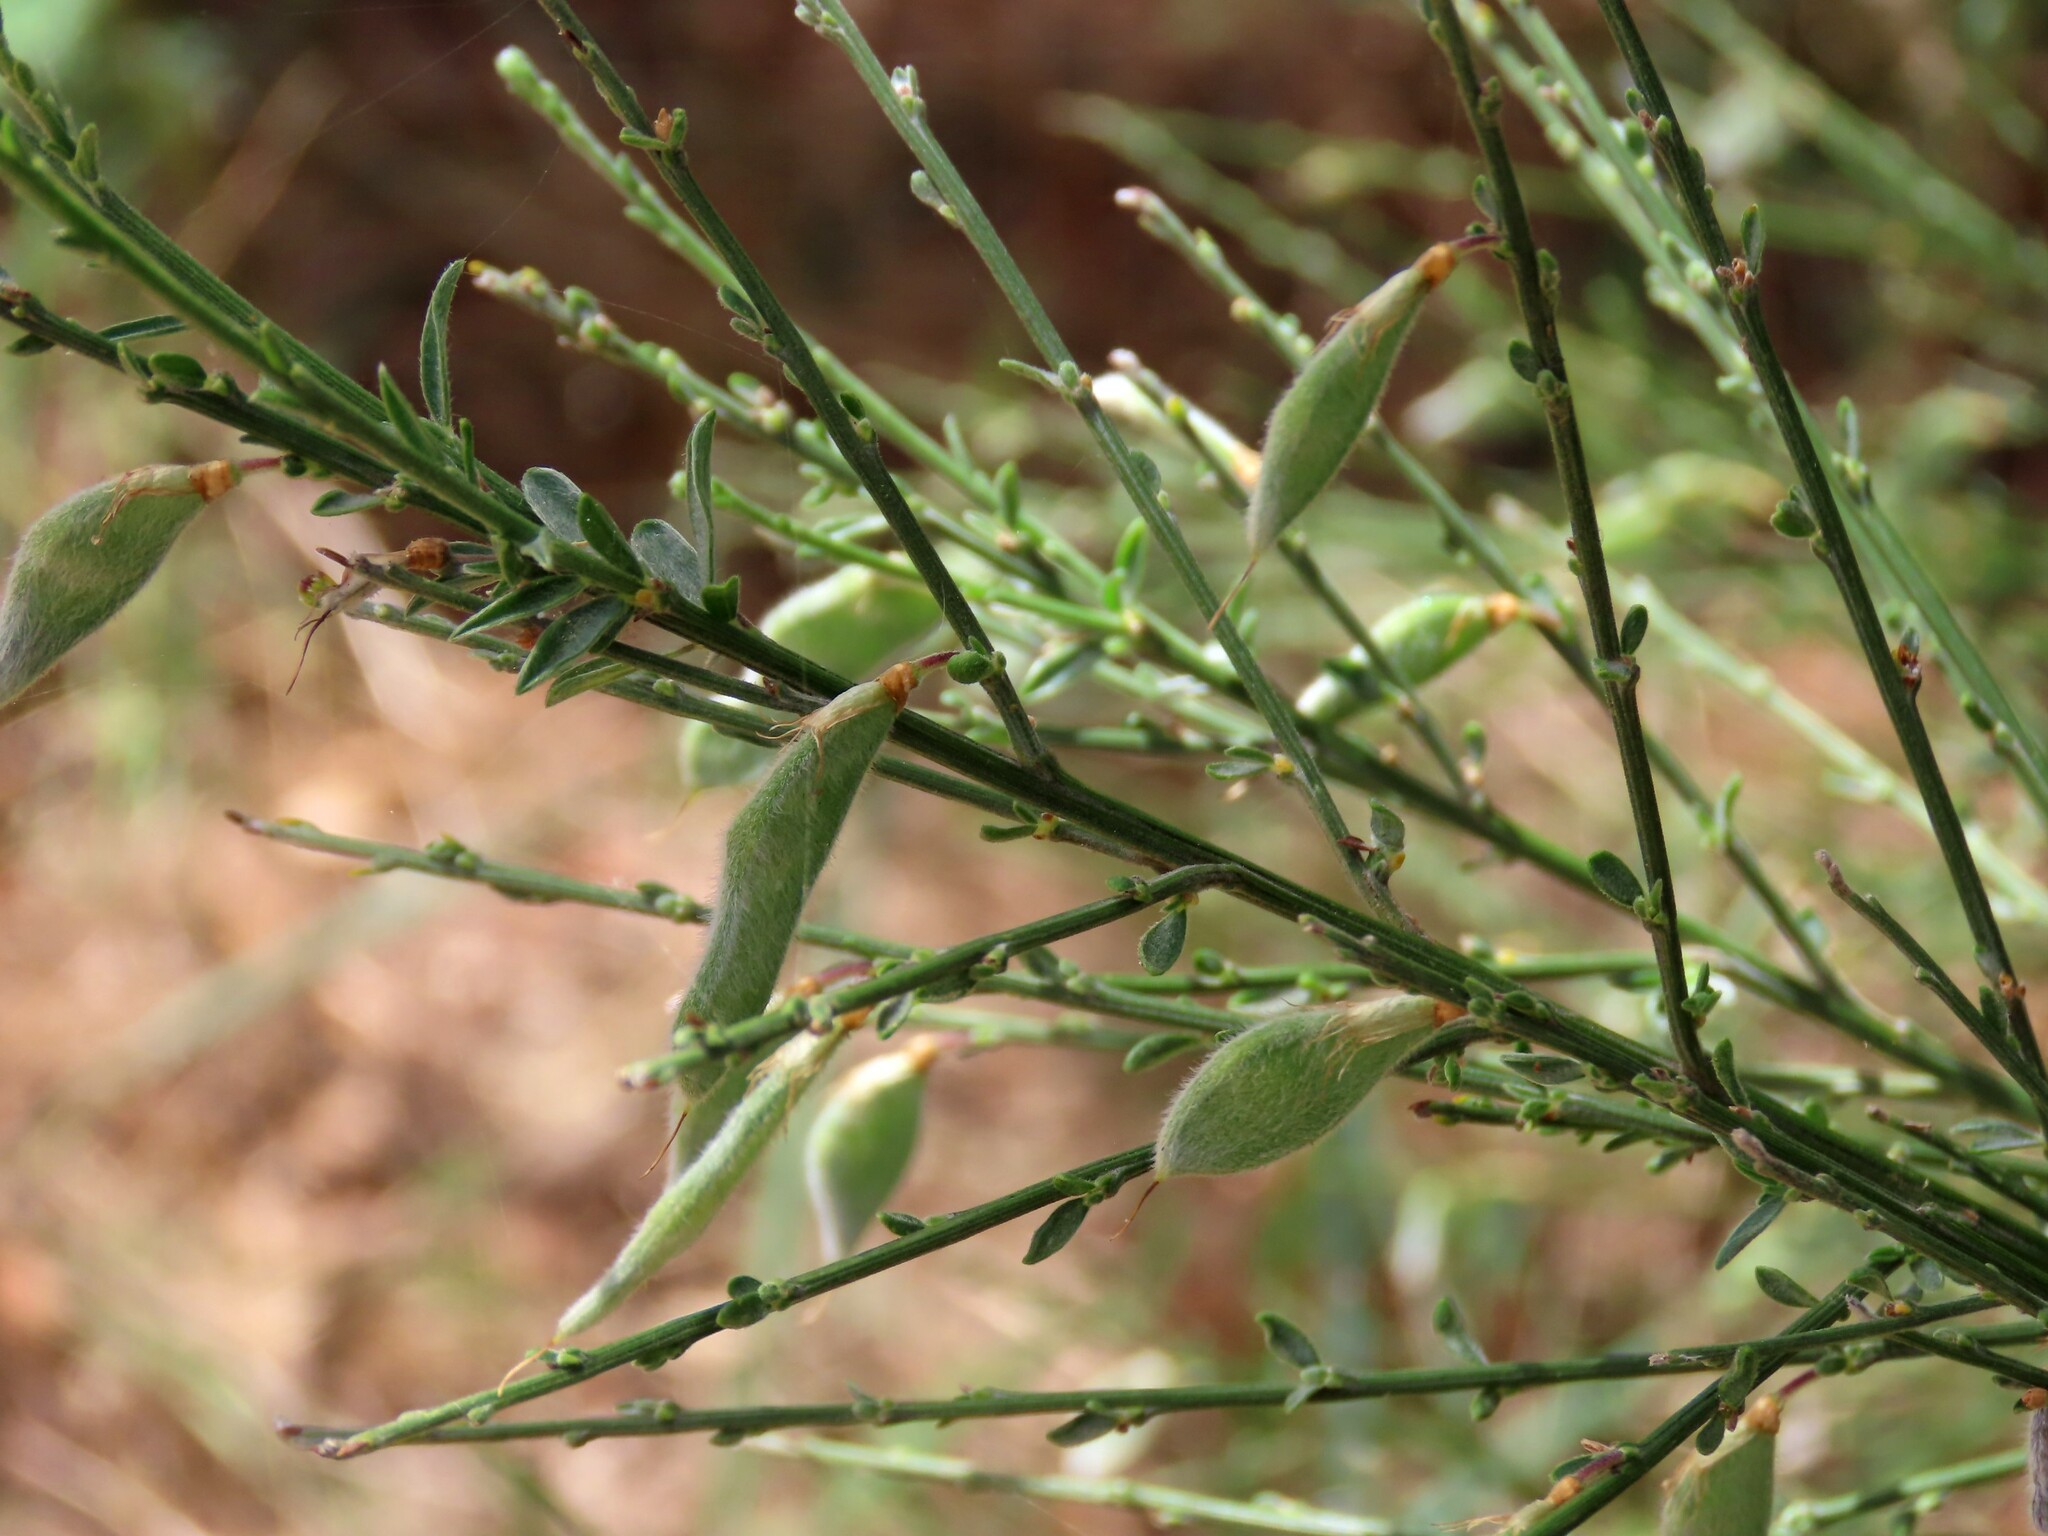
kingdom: Plantae
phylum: Tracheophyta
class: Magnoliopsida
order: Fabales
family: Fabaceae
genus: Cytisus
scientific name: Cytisus scoparius
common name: Scotch broom
